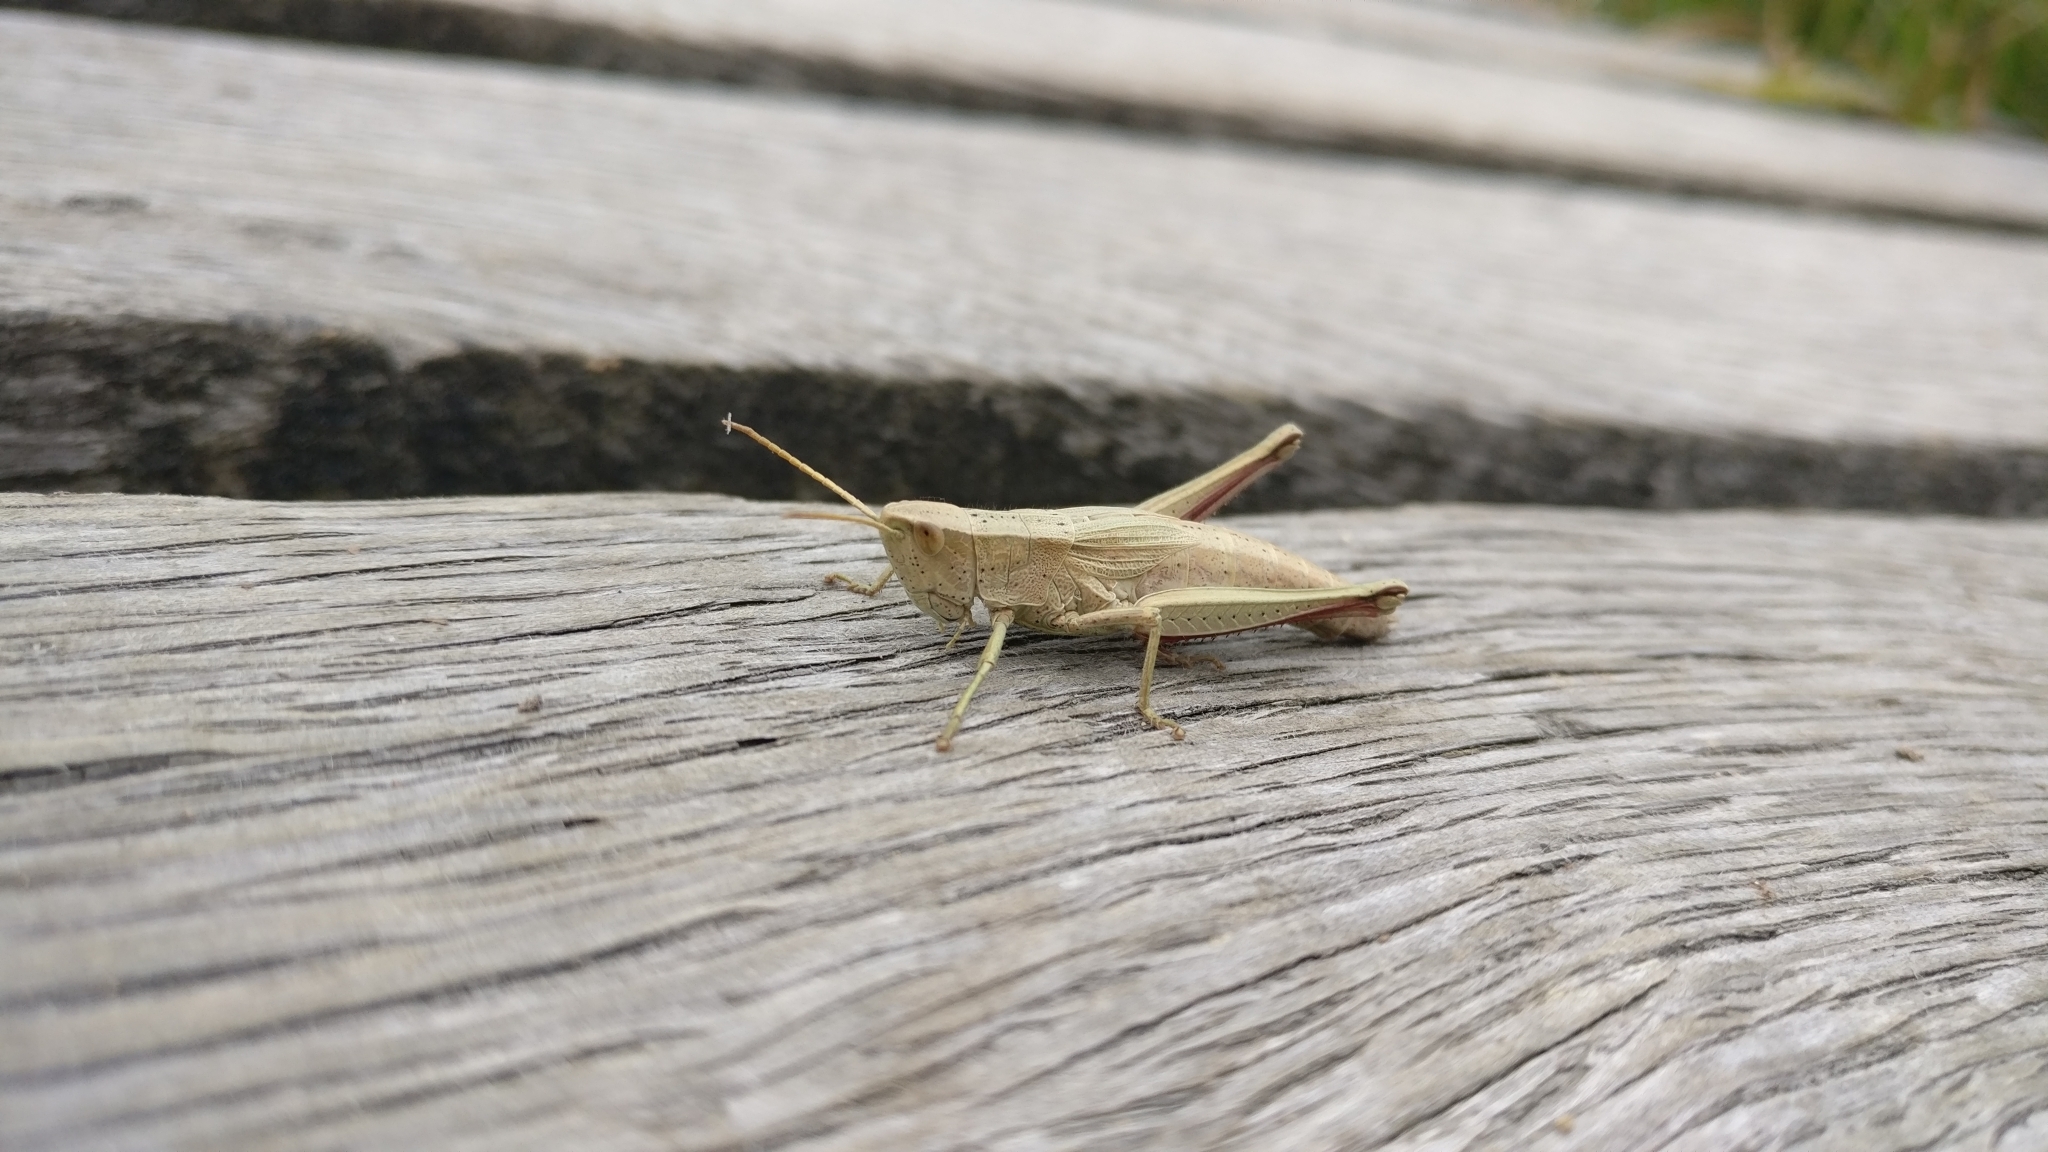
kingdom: Animalia
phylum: Arthropoda
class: Insecta
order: Orthoptera
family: Acrididae
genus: Chrysochraon
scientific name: Chrysochraon dispar
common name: Large gold grasshopper
